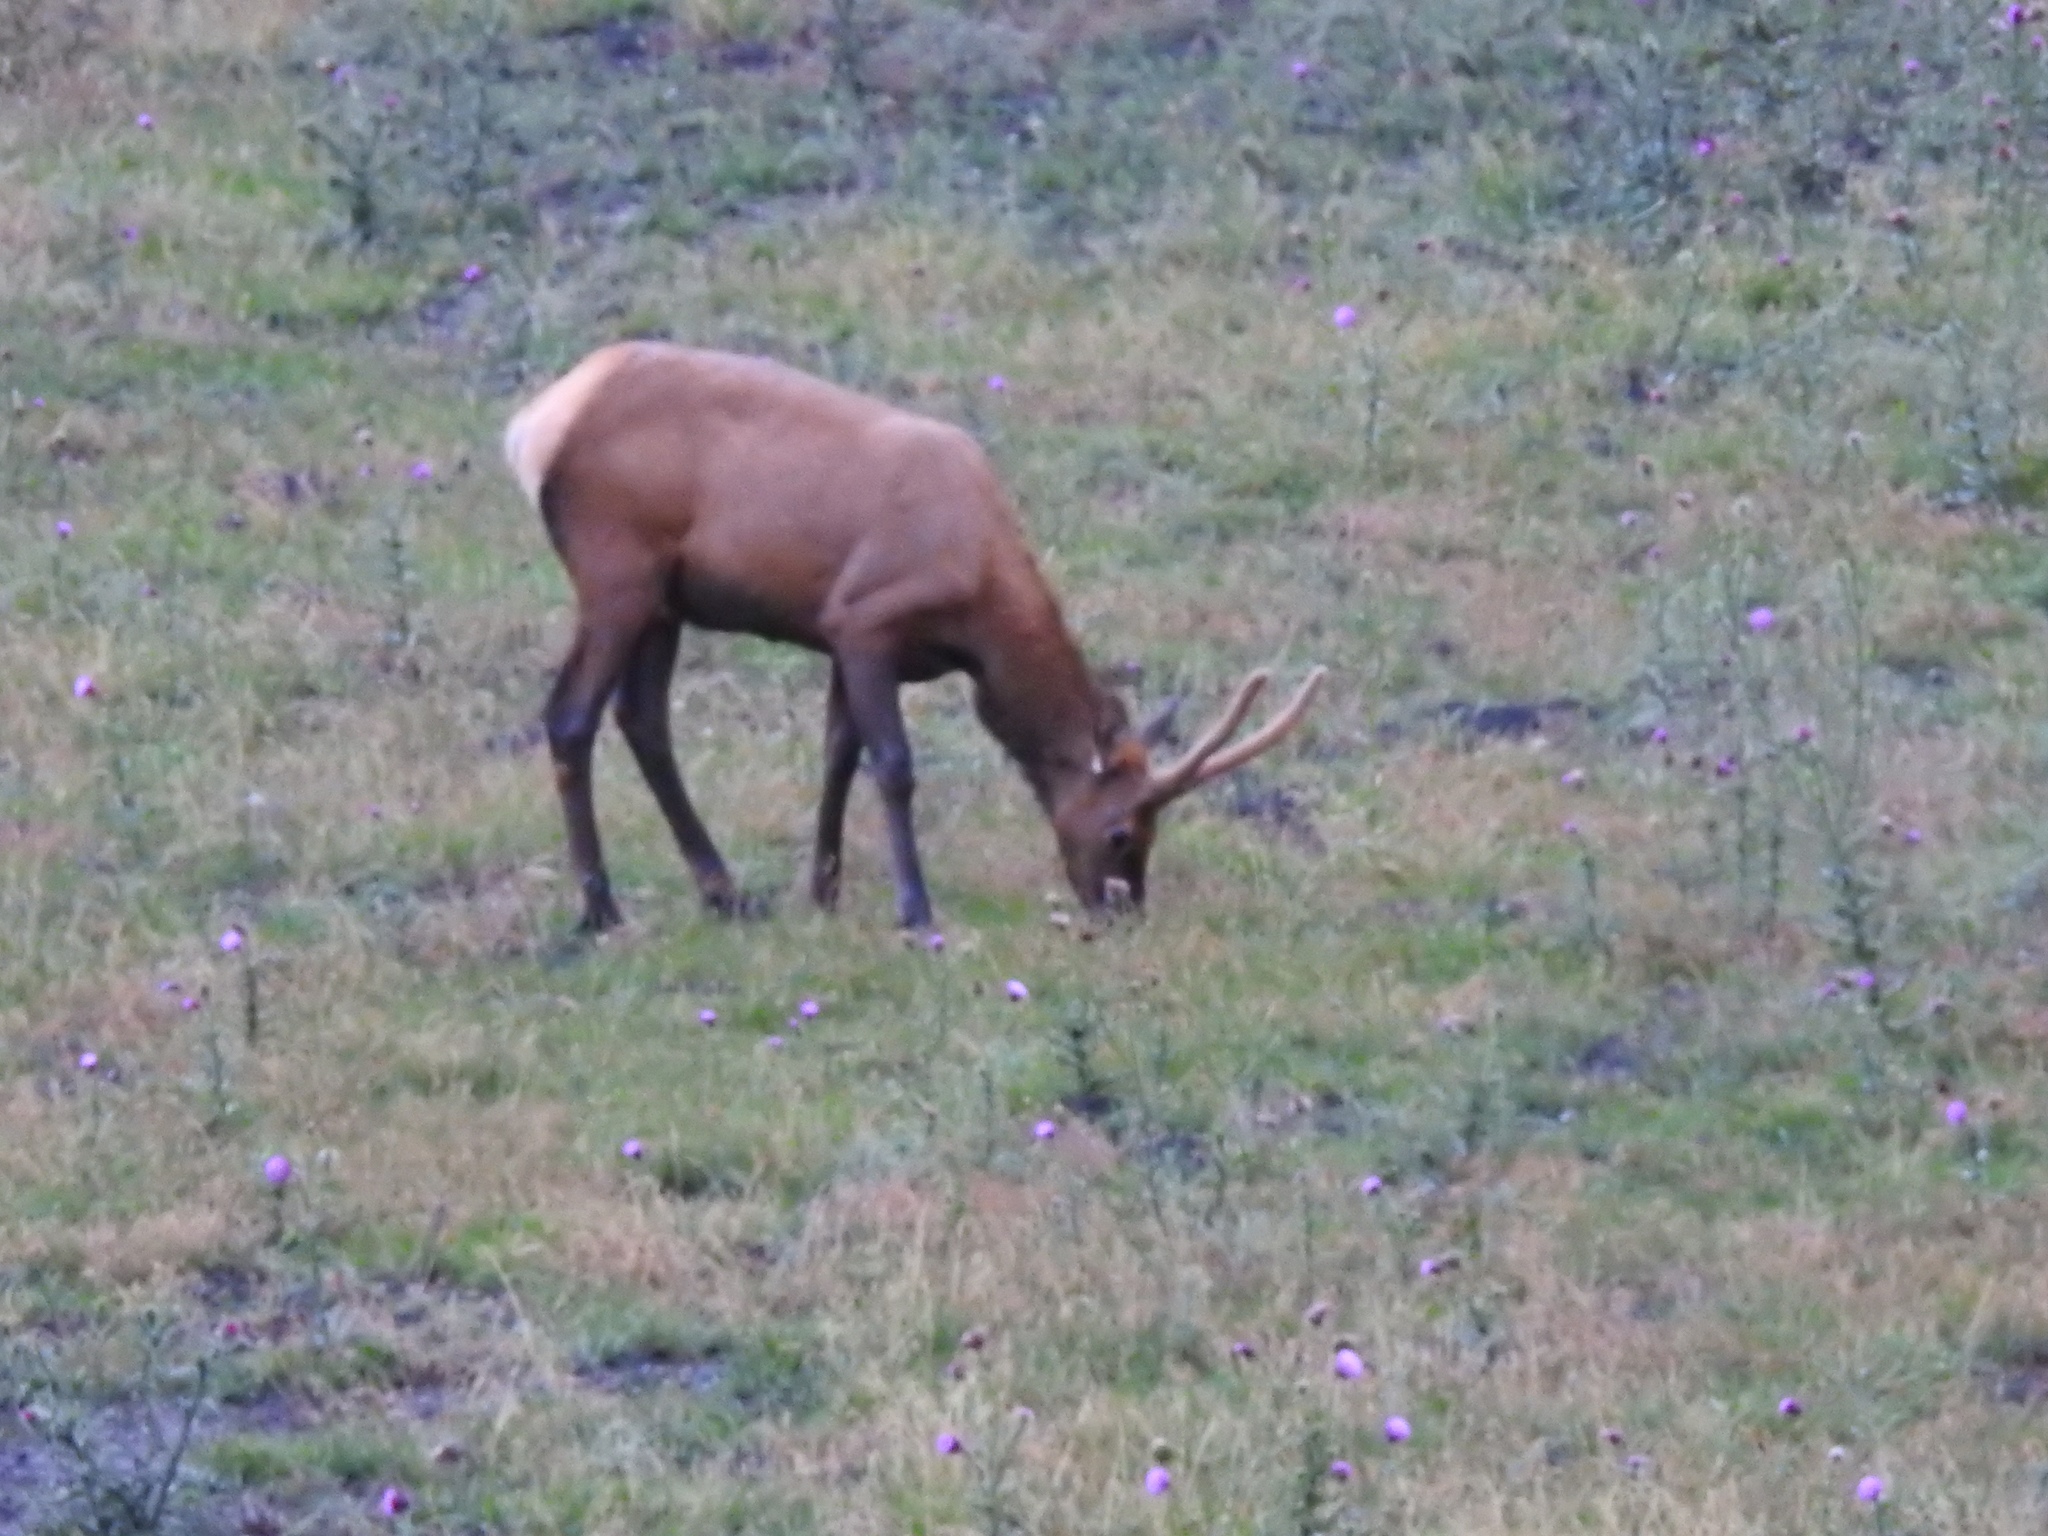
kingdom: Animalia
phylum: Chordata
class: Mammalia
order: Artiodactyla
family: Cervidae
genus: Cervus
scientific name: Cervus elaphus
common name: Red deer
